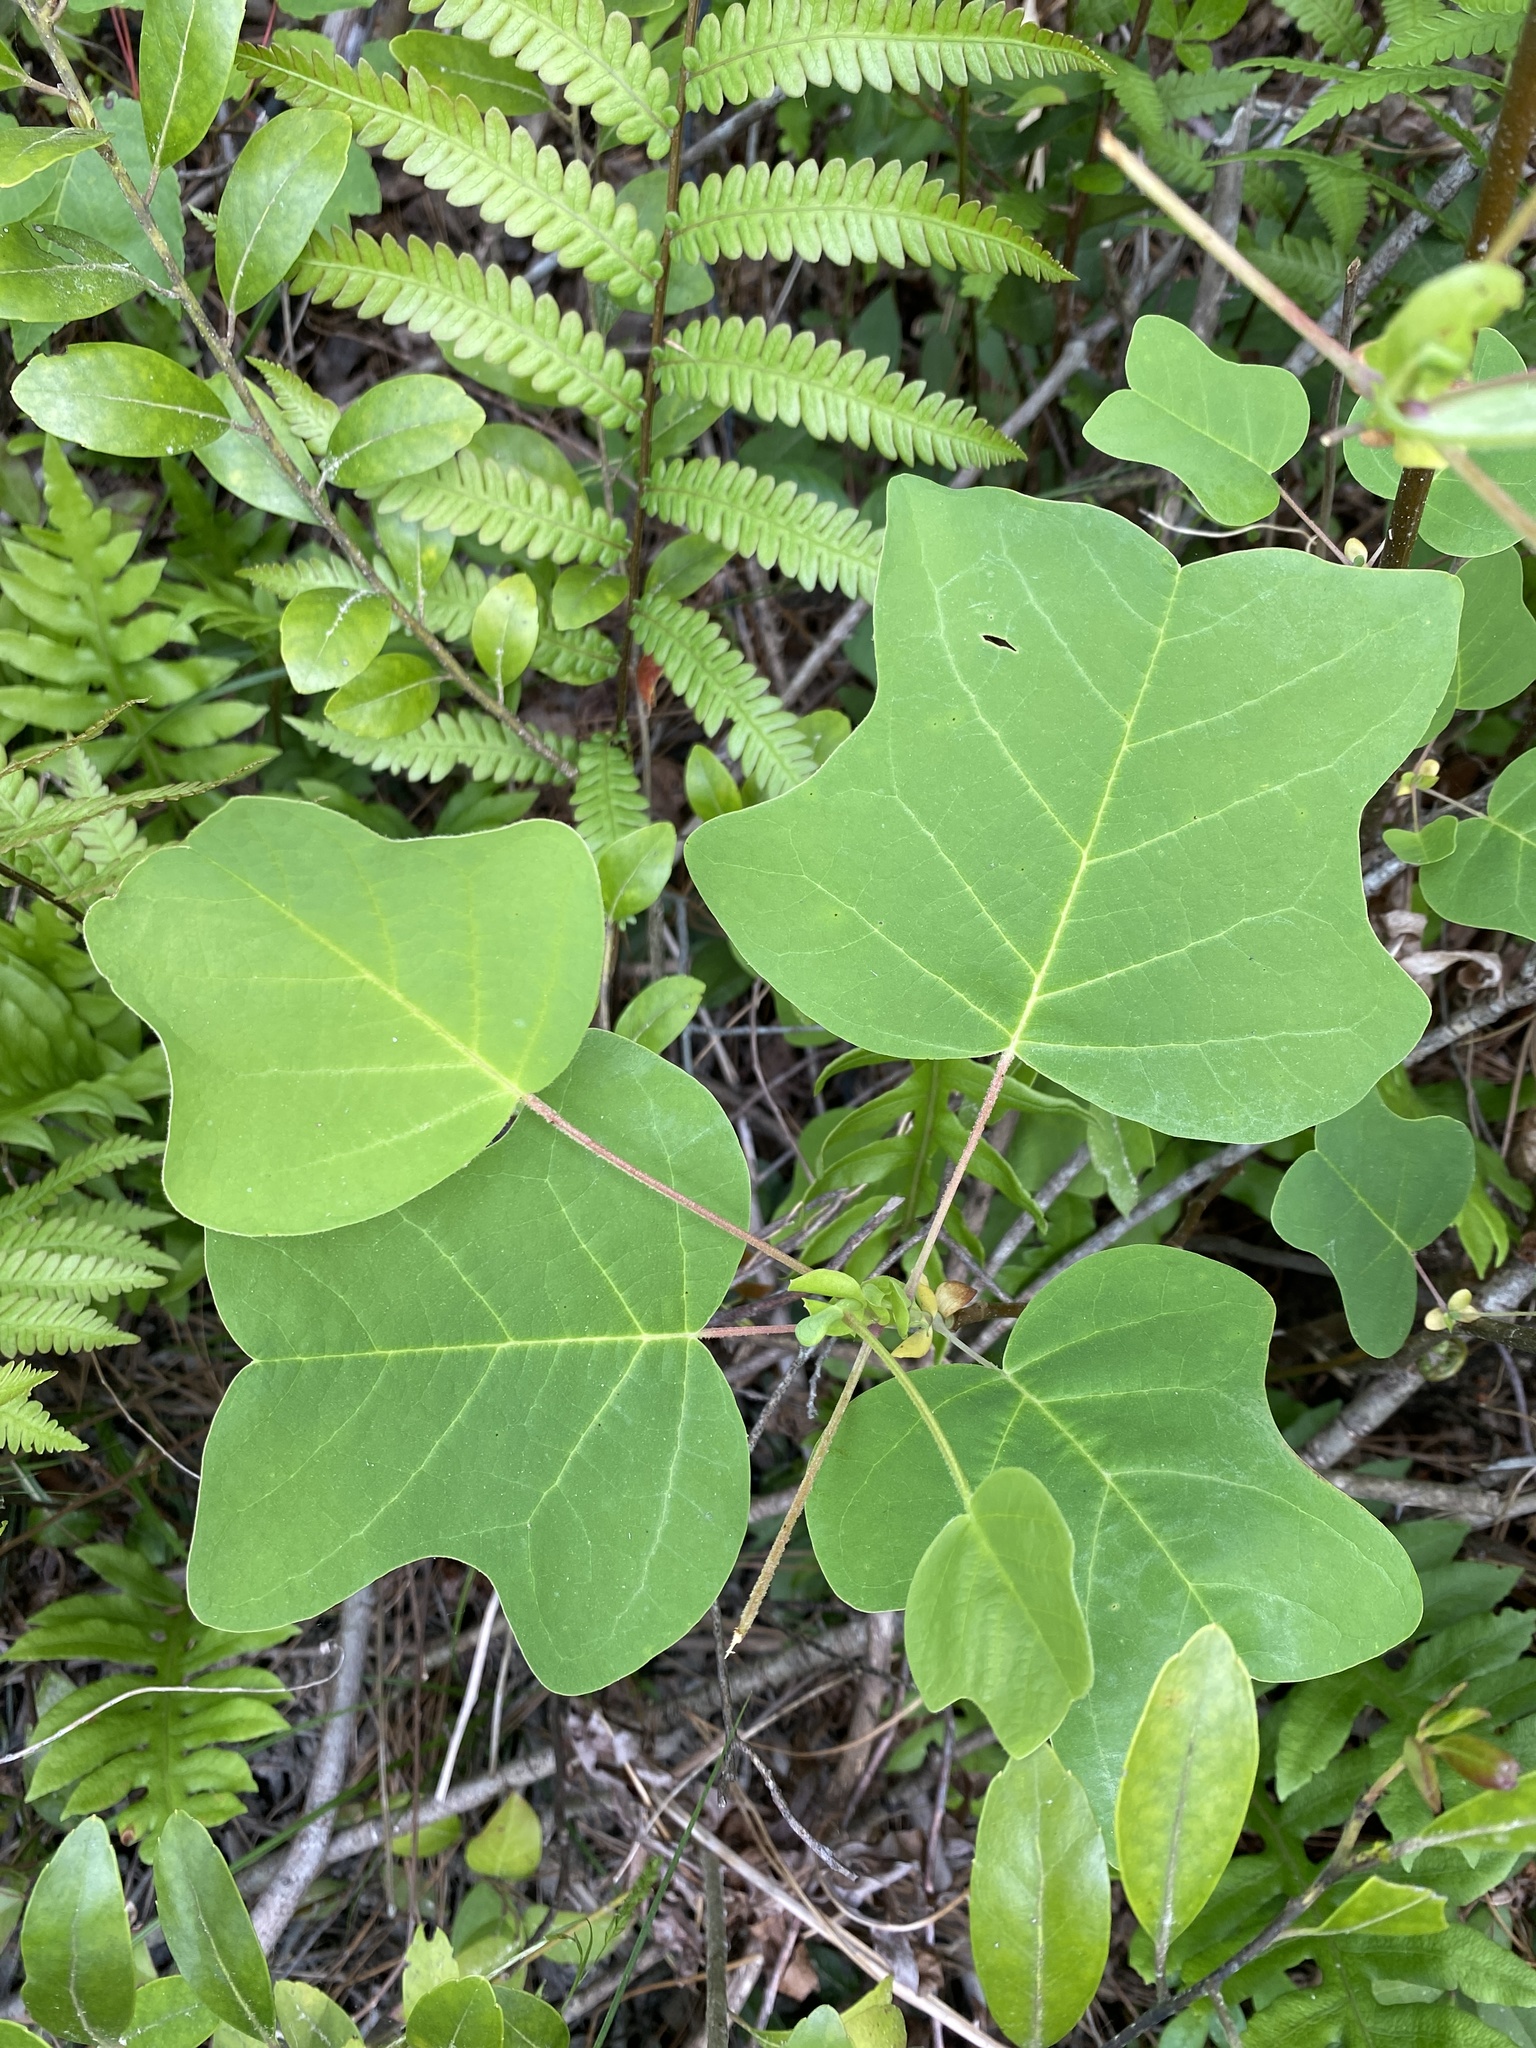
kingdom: Plantae
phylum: Tracheophyta
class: Magnoliopsida
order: Magnoliales
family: Magnoliaceae
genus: Liriodendron
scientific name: Liriodendron tulipifera
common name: Tulip tree
